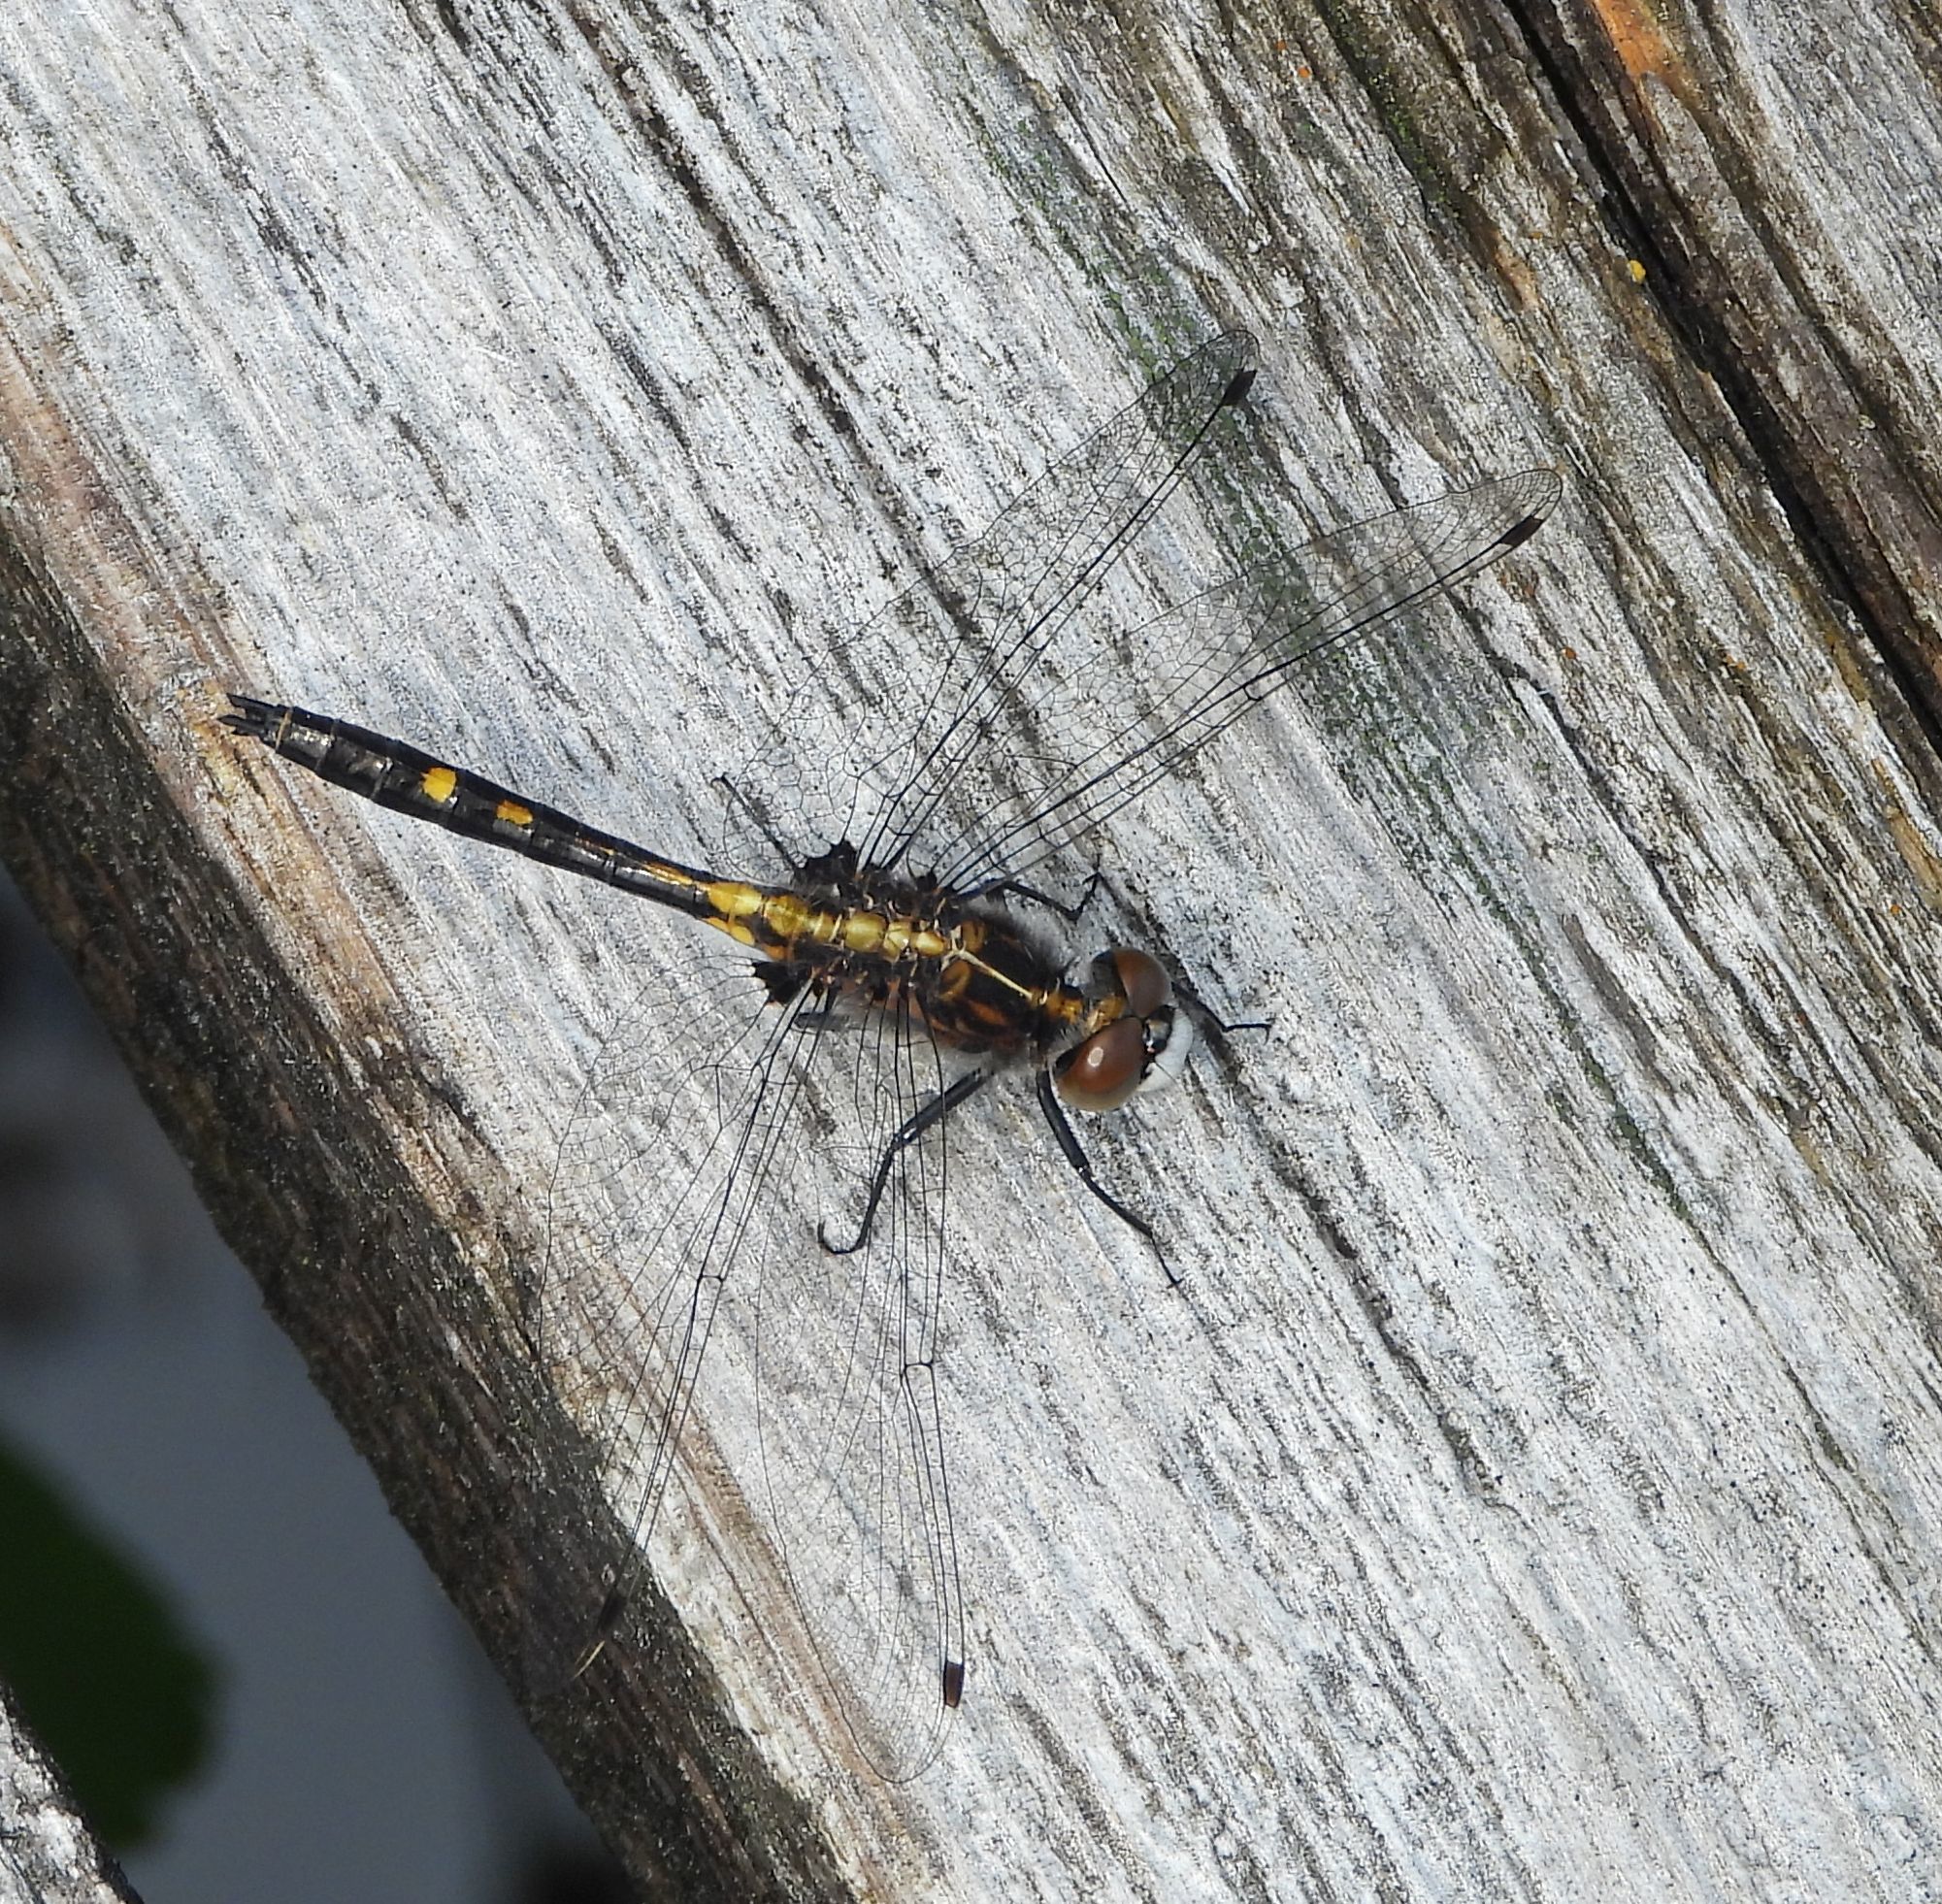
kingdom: Animalia
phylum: Arthropoda
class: Insecta
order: Odonata
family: Libellulidae
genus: Leucorrhinia
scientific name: Leucorrhinia intacta
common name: Dot-tailed whiteface
